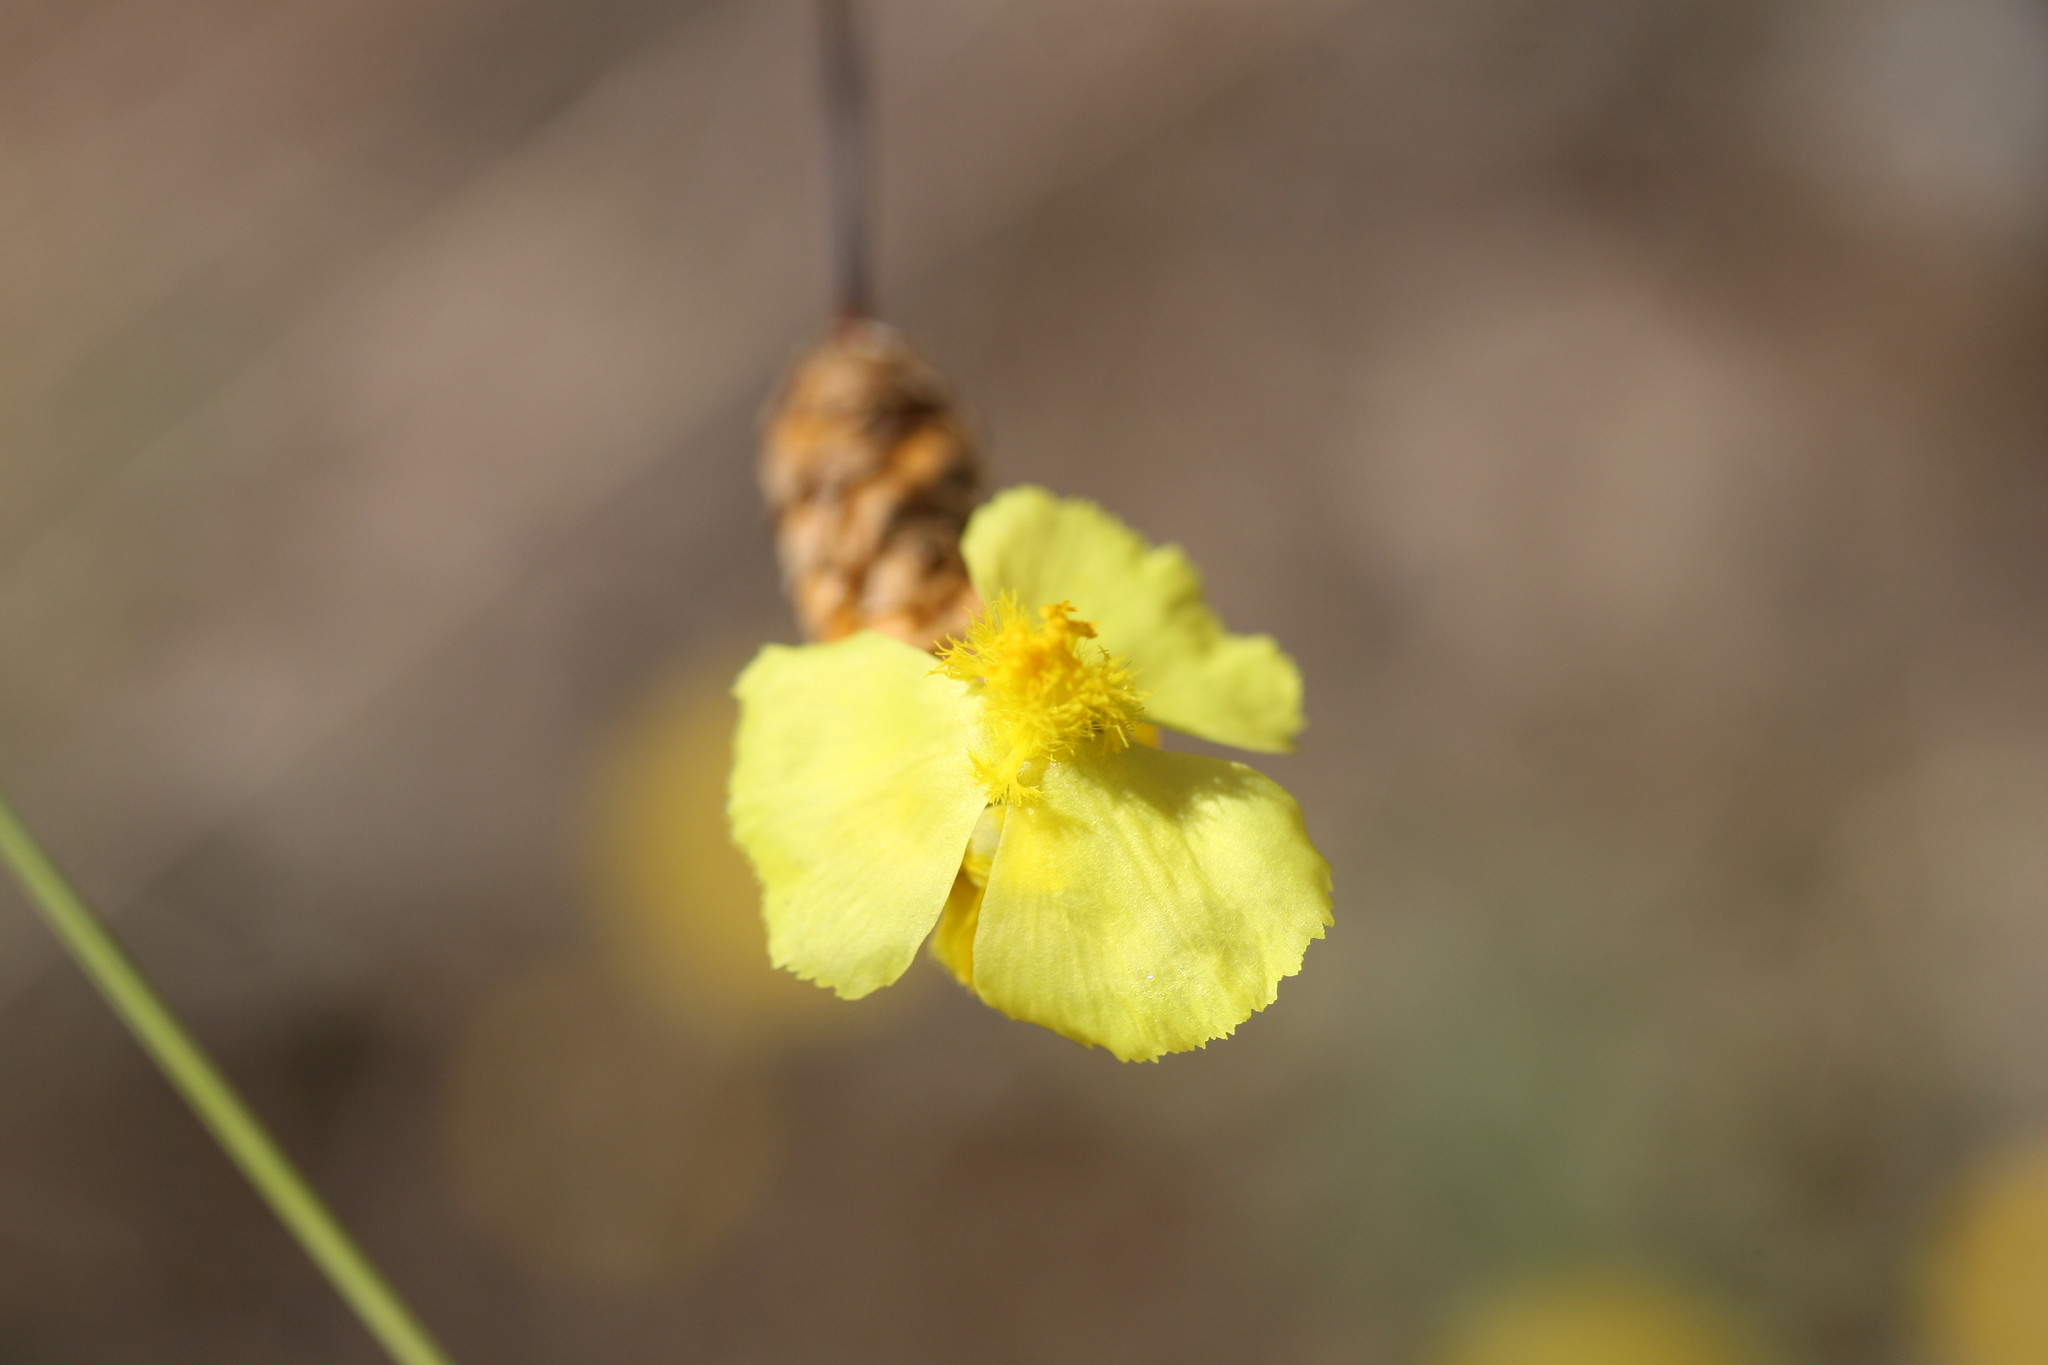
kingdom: Plantae
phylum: Tracheophyta
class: Liliopsida
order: Poales
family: Xyridaceae
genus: Xyris
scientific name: Xyris complanata
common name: Hawai'i yelloweyed grass
